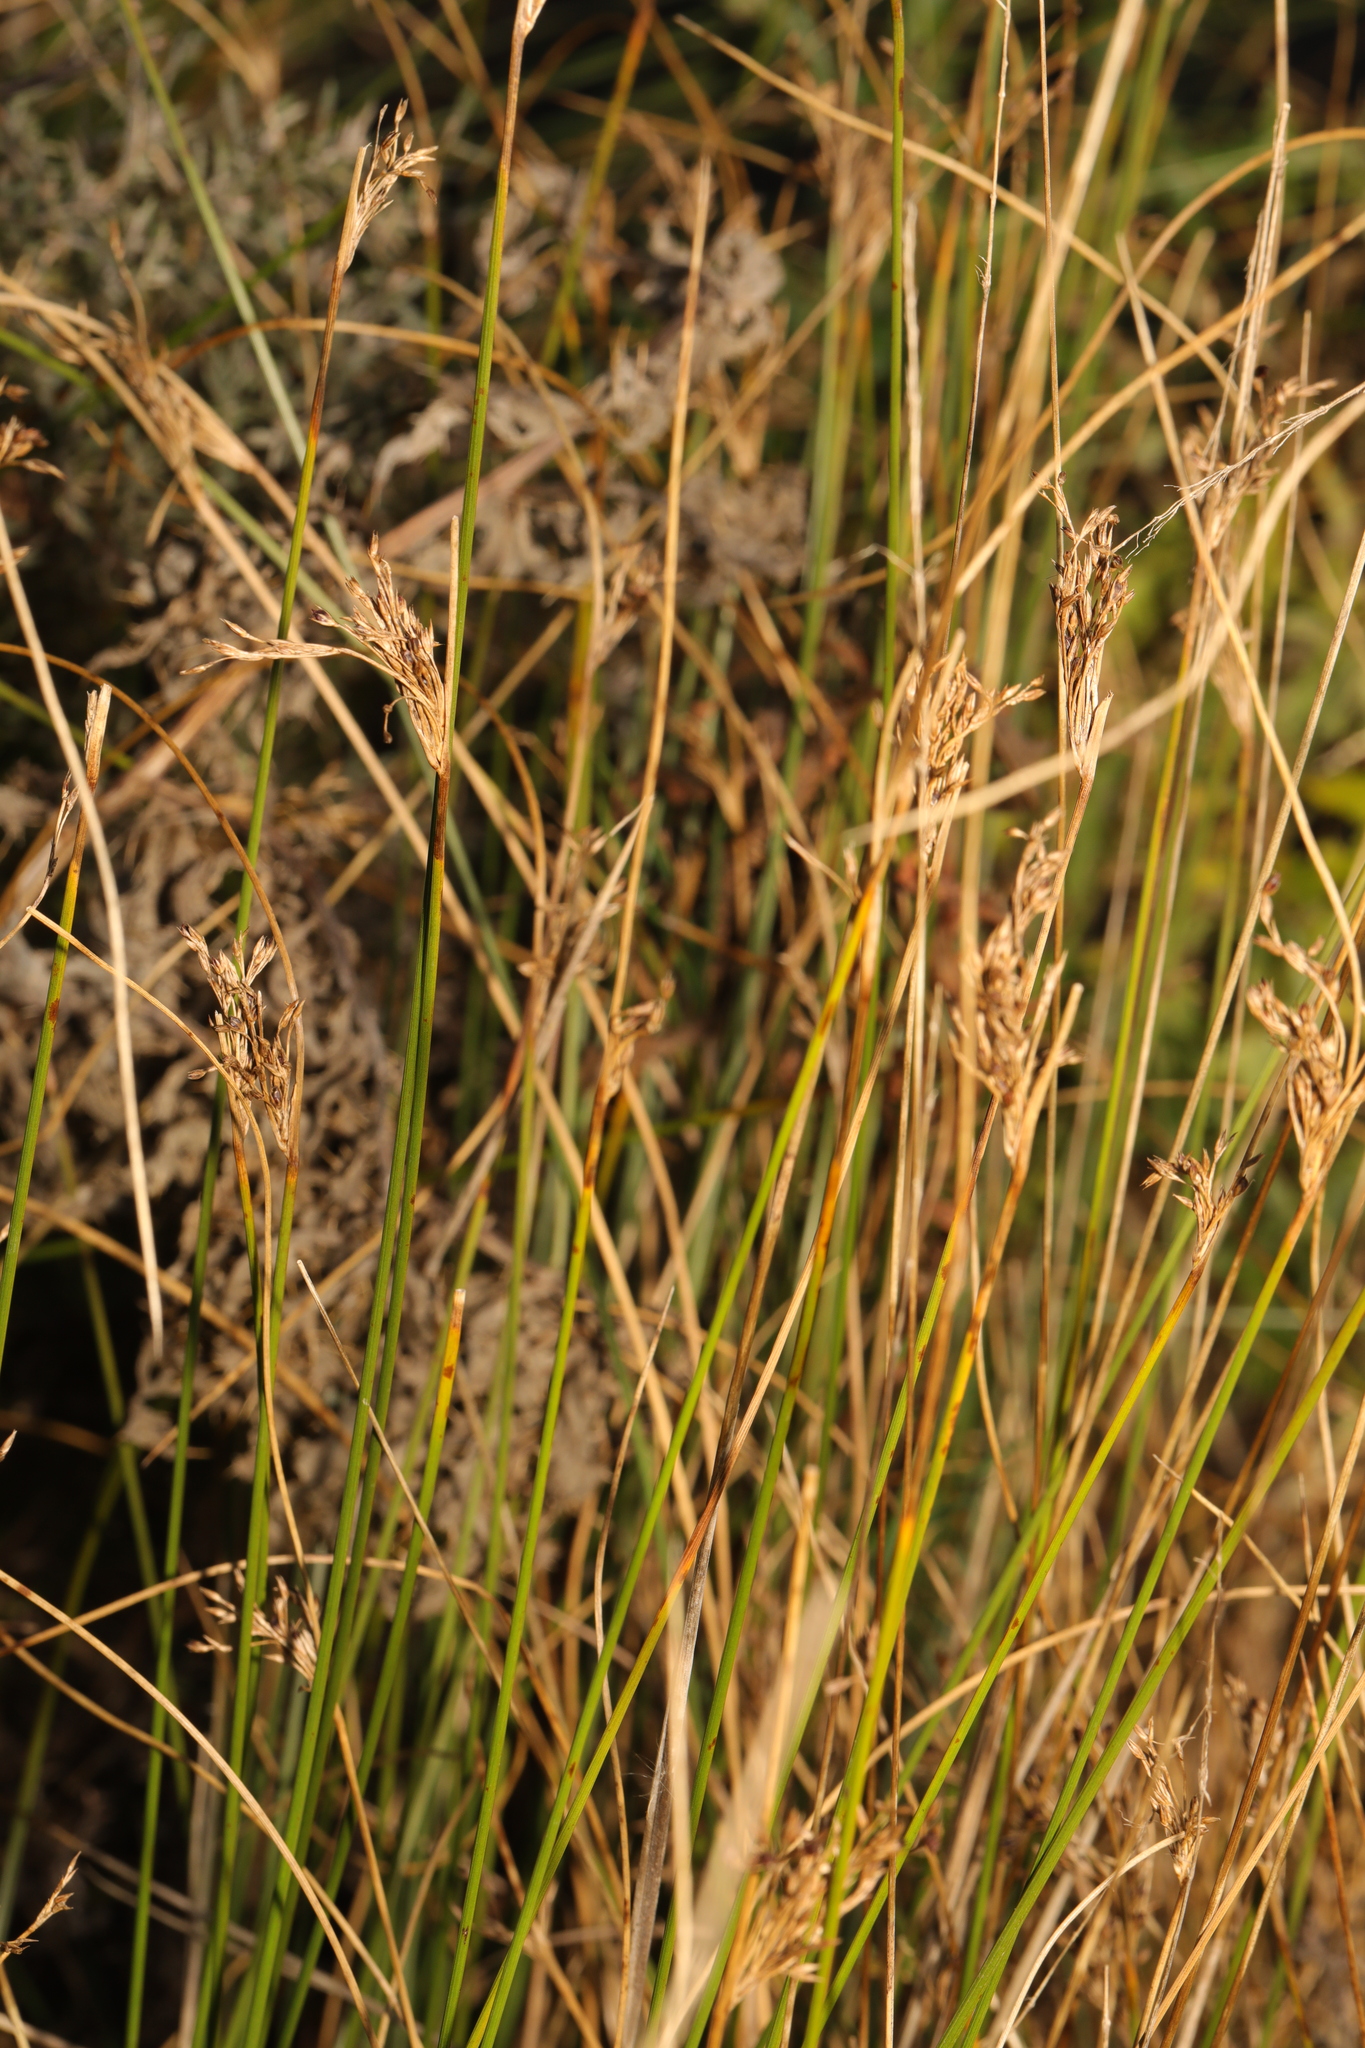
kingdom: Plantae
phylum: Tracheophyta
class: Liliopsida
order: Poales
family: Juncaceae
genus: Juncus
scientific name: Juncus inflexus
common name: Hard rush
